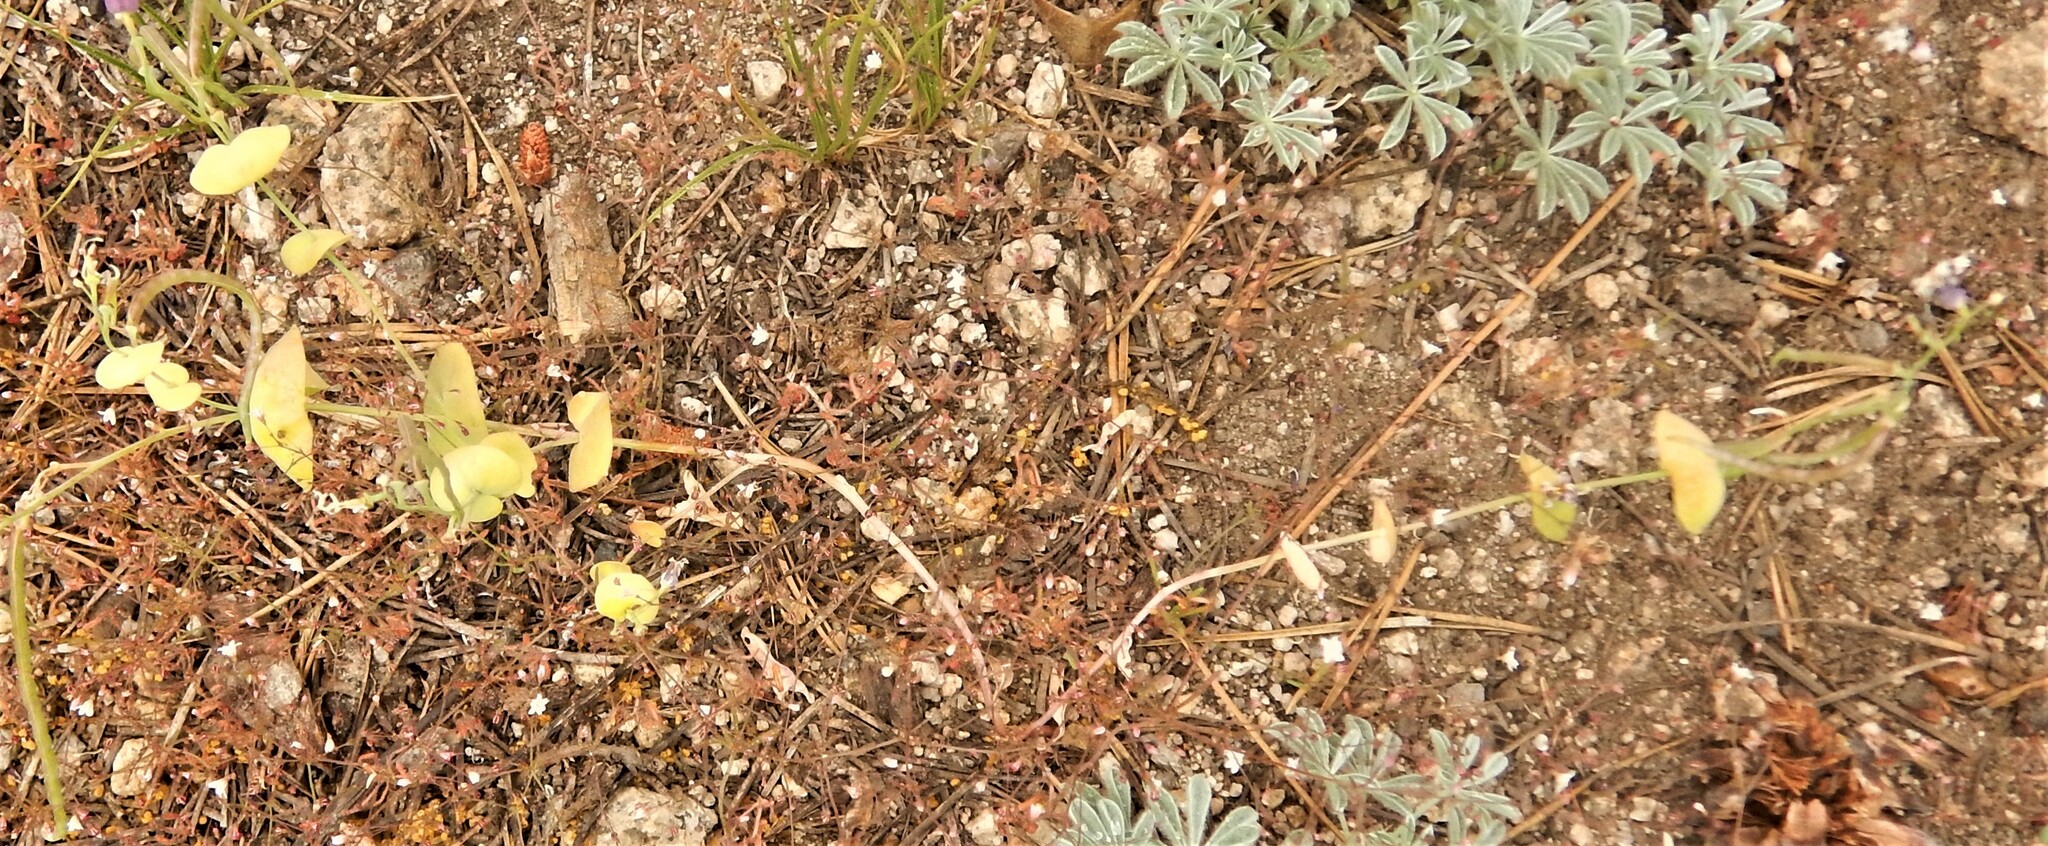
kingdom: Plantae
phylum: Tracheophyta
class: Magnoliopsida
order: Brassicales
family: Brassicaceae
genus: Streptanthus
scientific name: Streptanthus tortuosus
